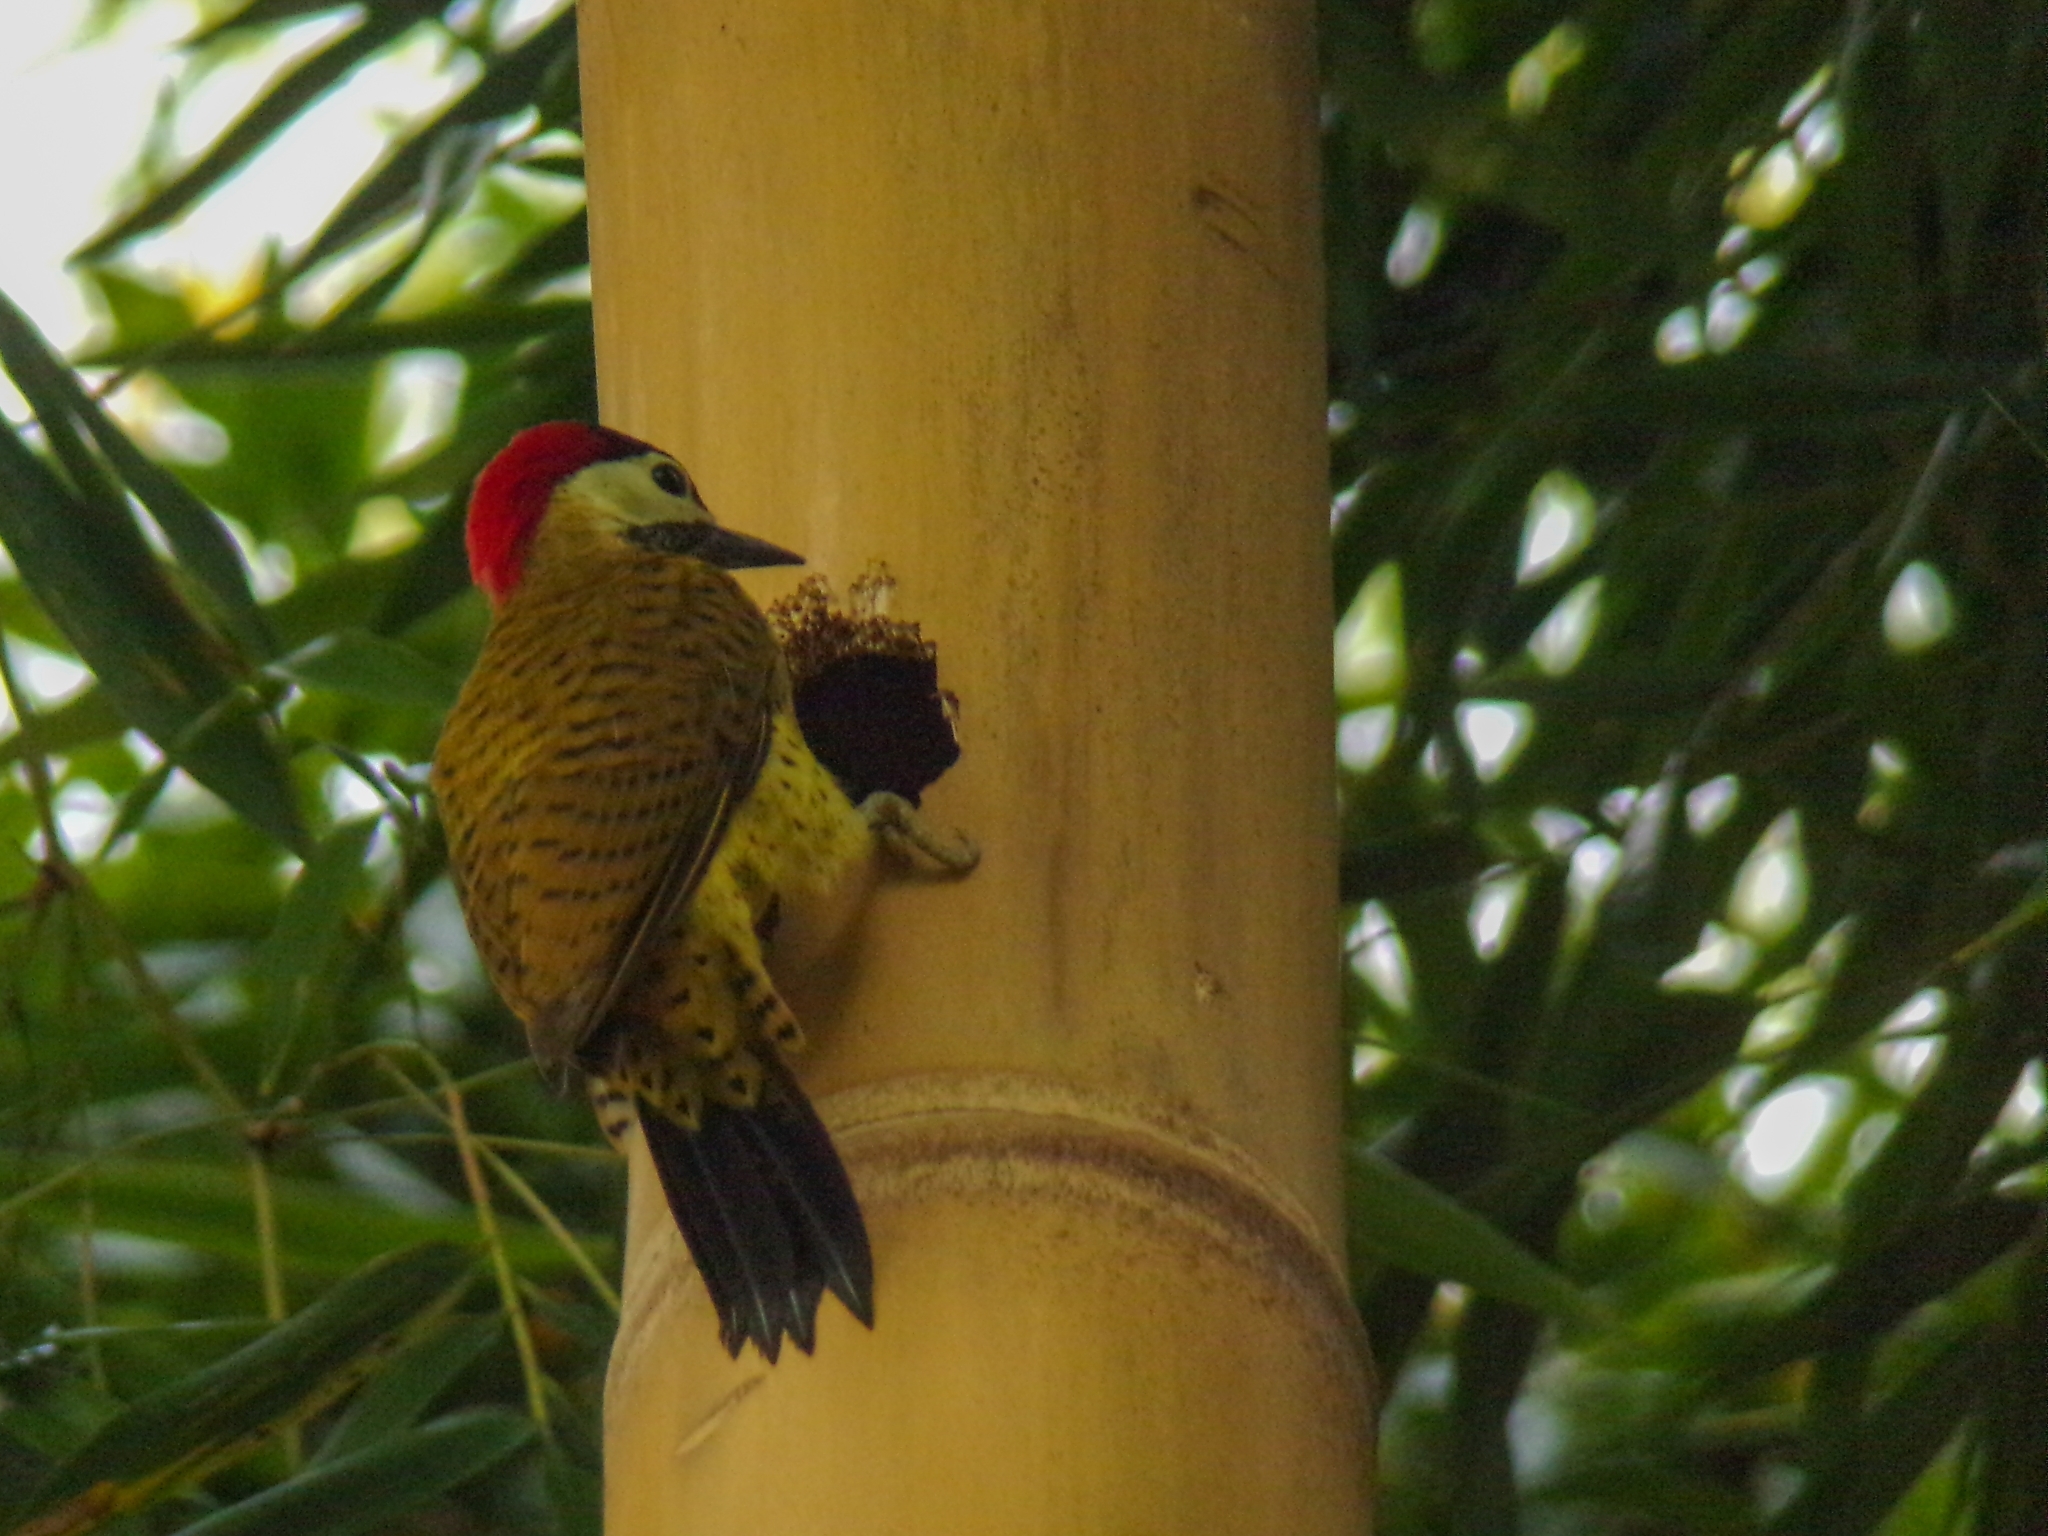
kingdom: Animalia
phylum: Chordata
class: Aves
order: Piciformes
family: Picidae
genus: Colaptes
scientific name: Colaptes punctigula
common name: Spot-breasted woodpecker
